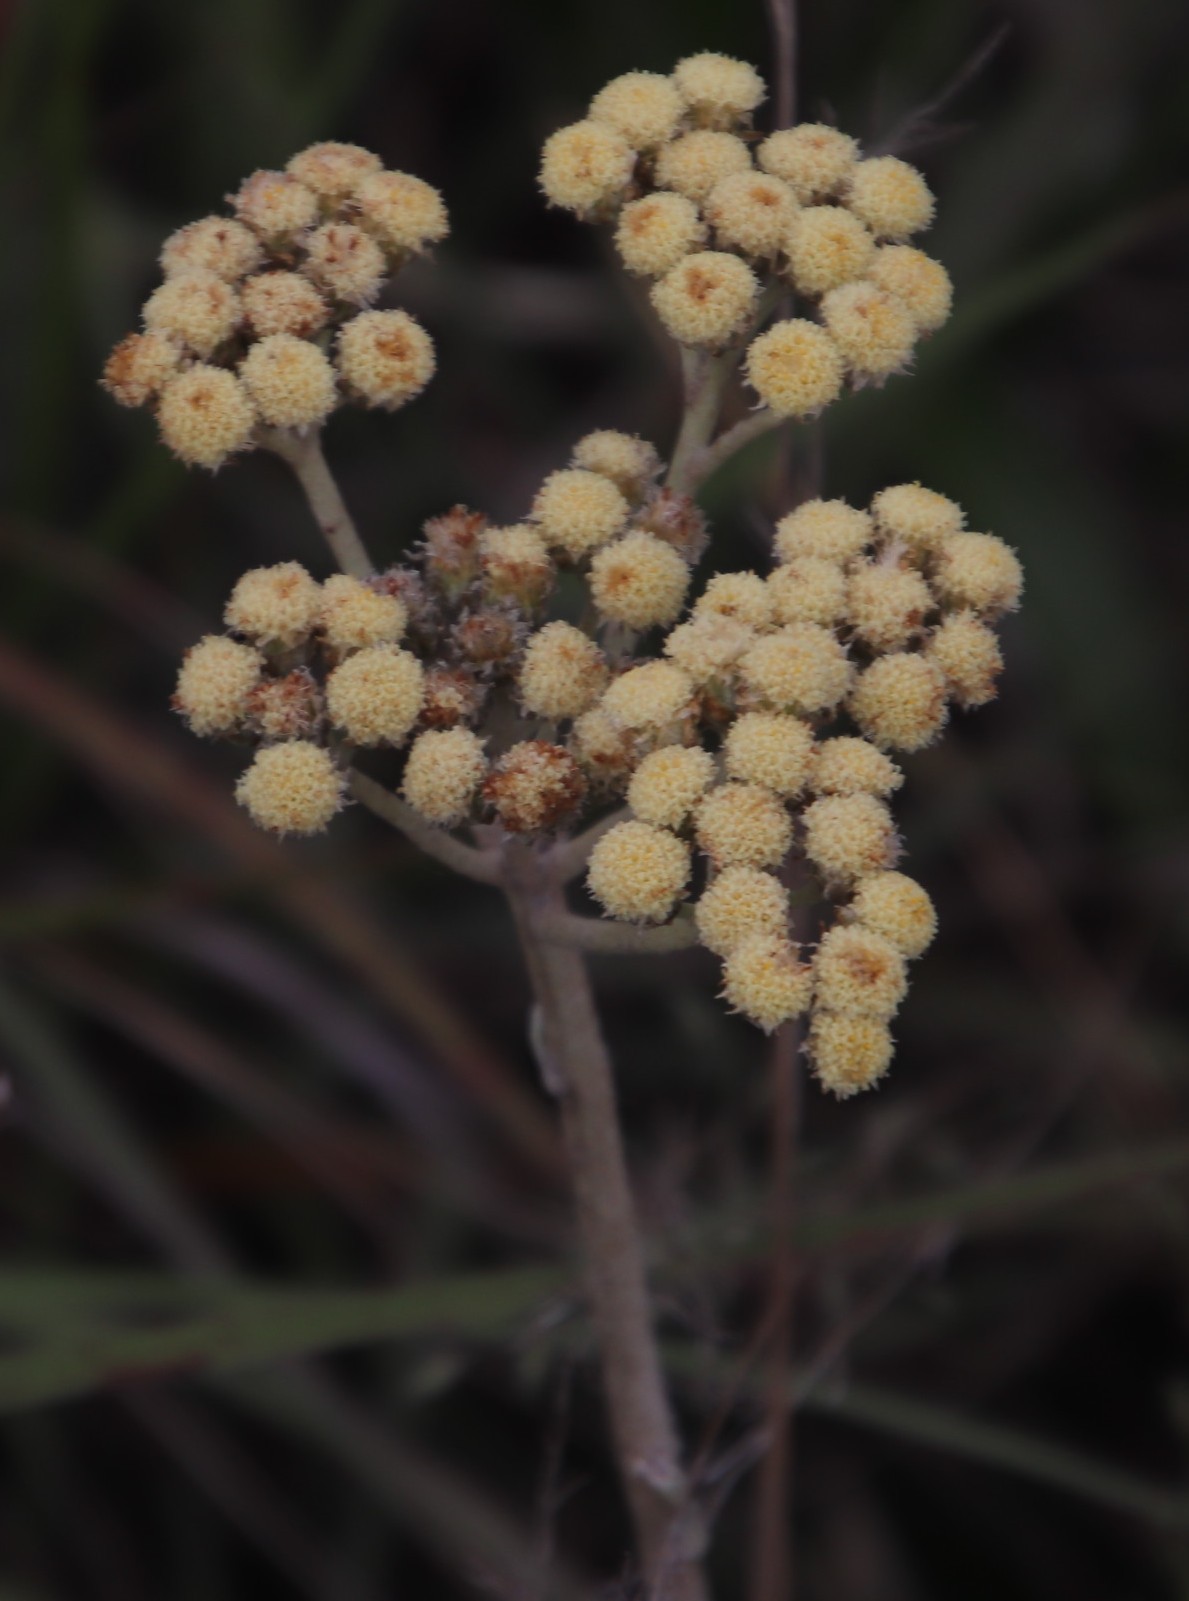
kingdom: Plantae
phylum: Tracheophyta
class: Magnoliopsida
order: Asterales
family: Asteraceae
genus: Helichrysum
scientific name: Helichrysum nudifolium
